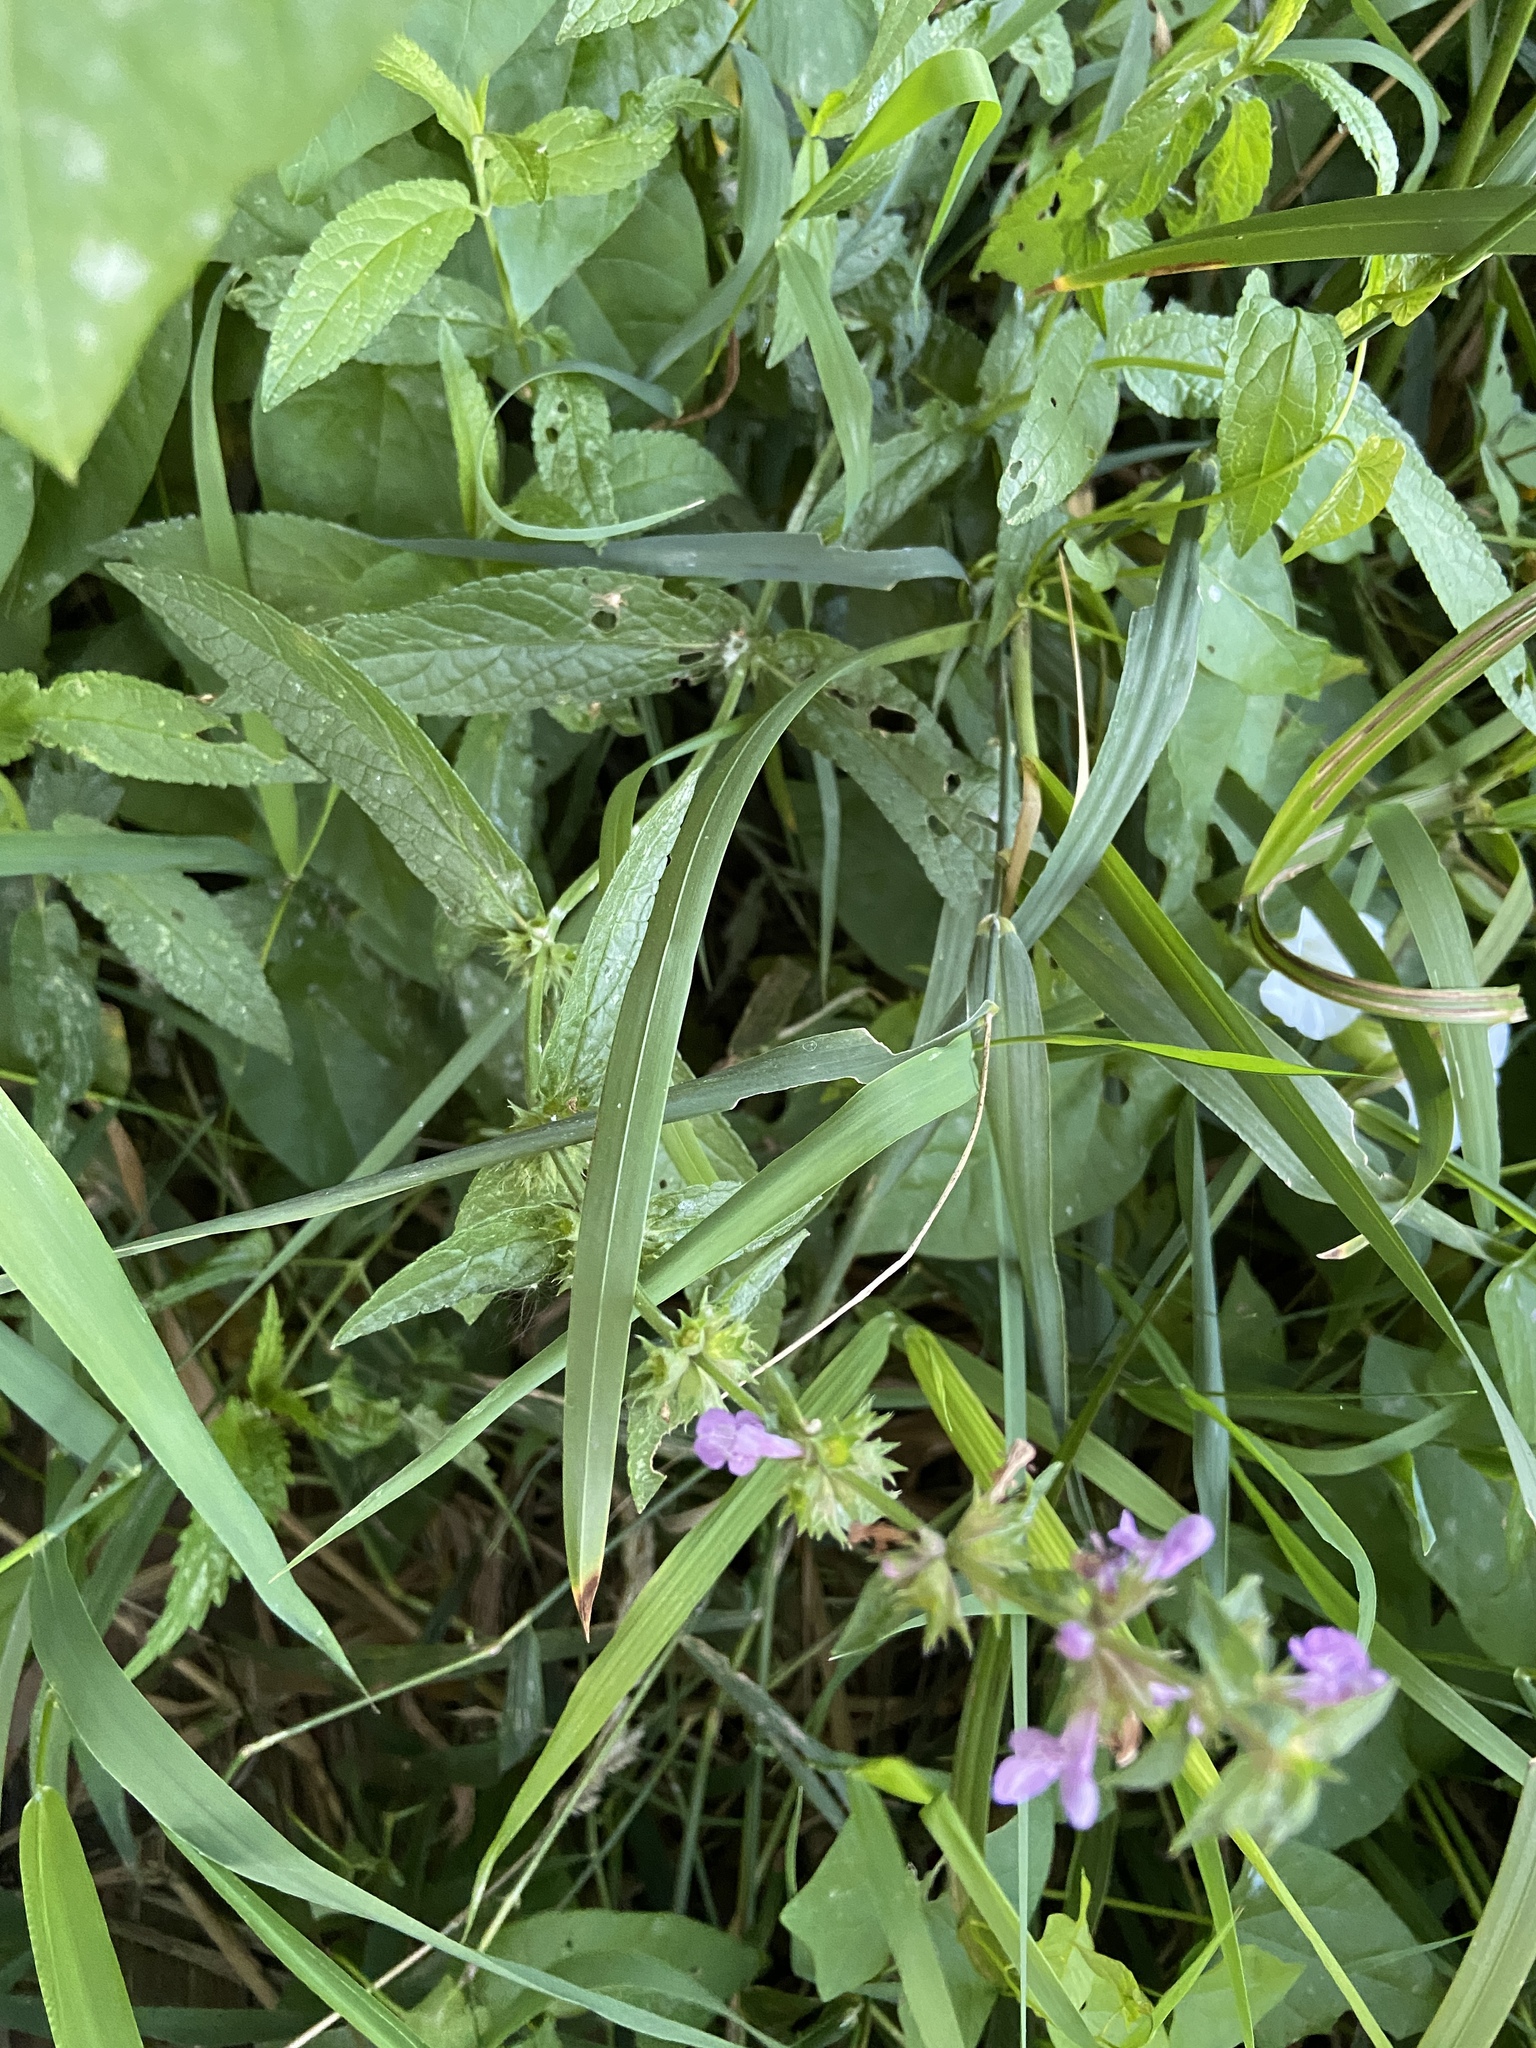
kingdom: Plantae
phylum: Tracheophyta
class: Magnoliopsida
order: Lamiales
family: Lamiaceae
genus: Stachys
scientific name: Stachys palustris
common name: Marsh woundwort
